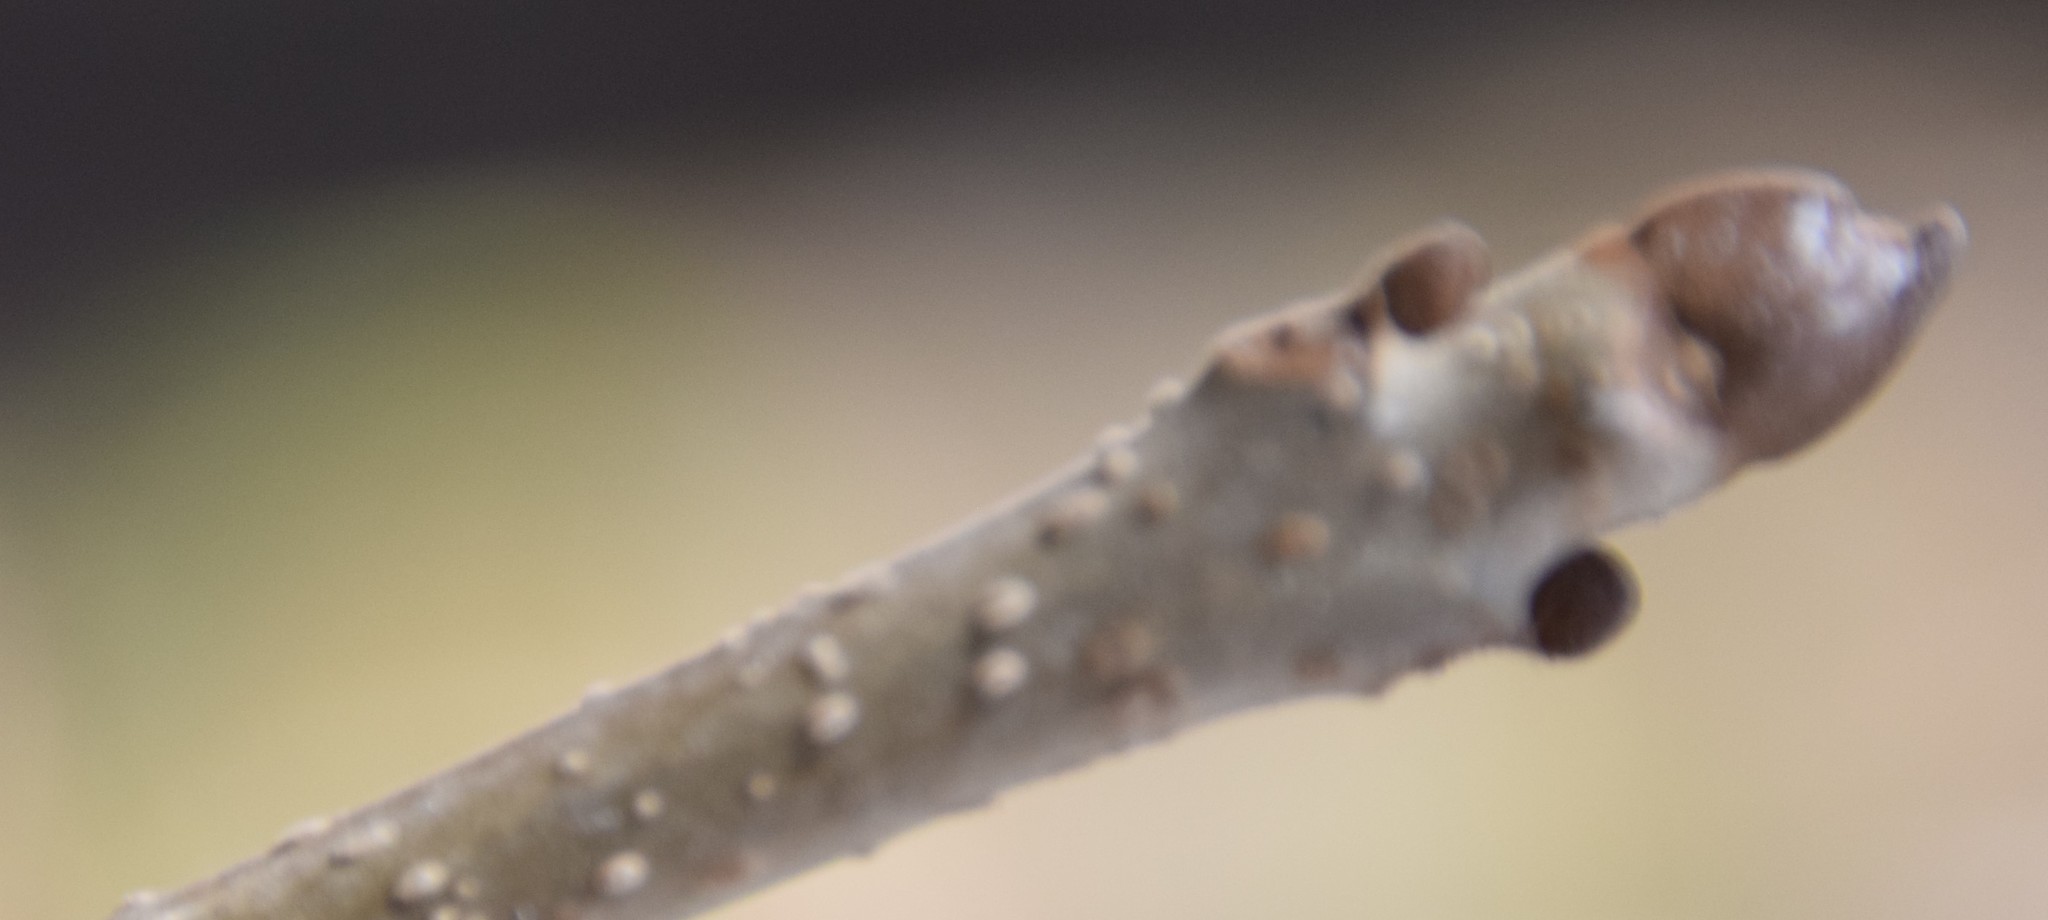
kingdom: Plantae
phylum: Tracheophyta
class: Magnoliopsida
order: Lamiales
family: Oleaceae
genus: Fraxinus
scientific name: Fraxinus nigra
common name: Black ash
